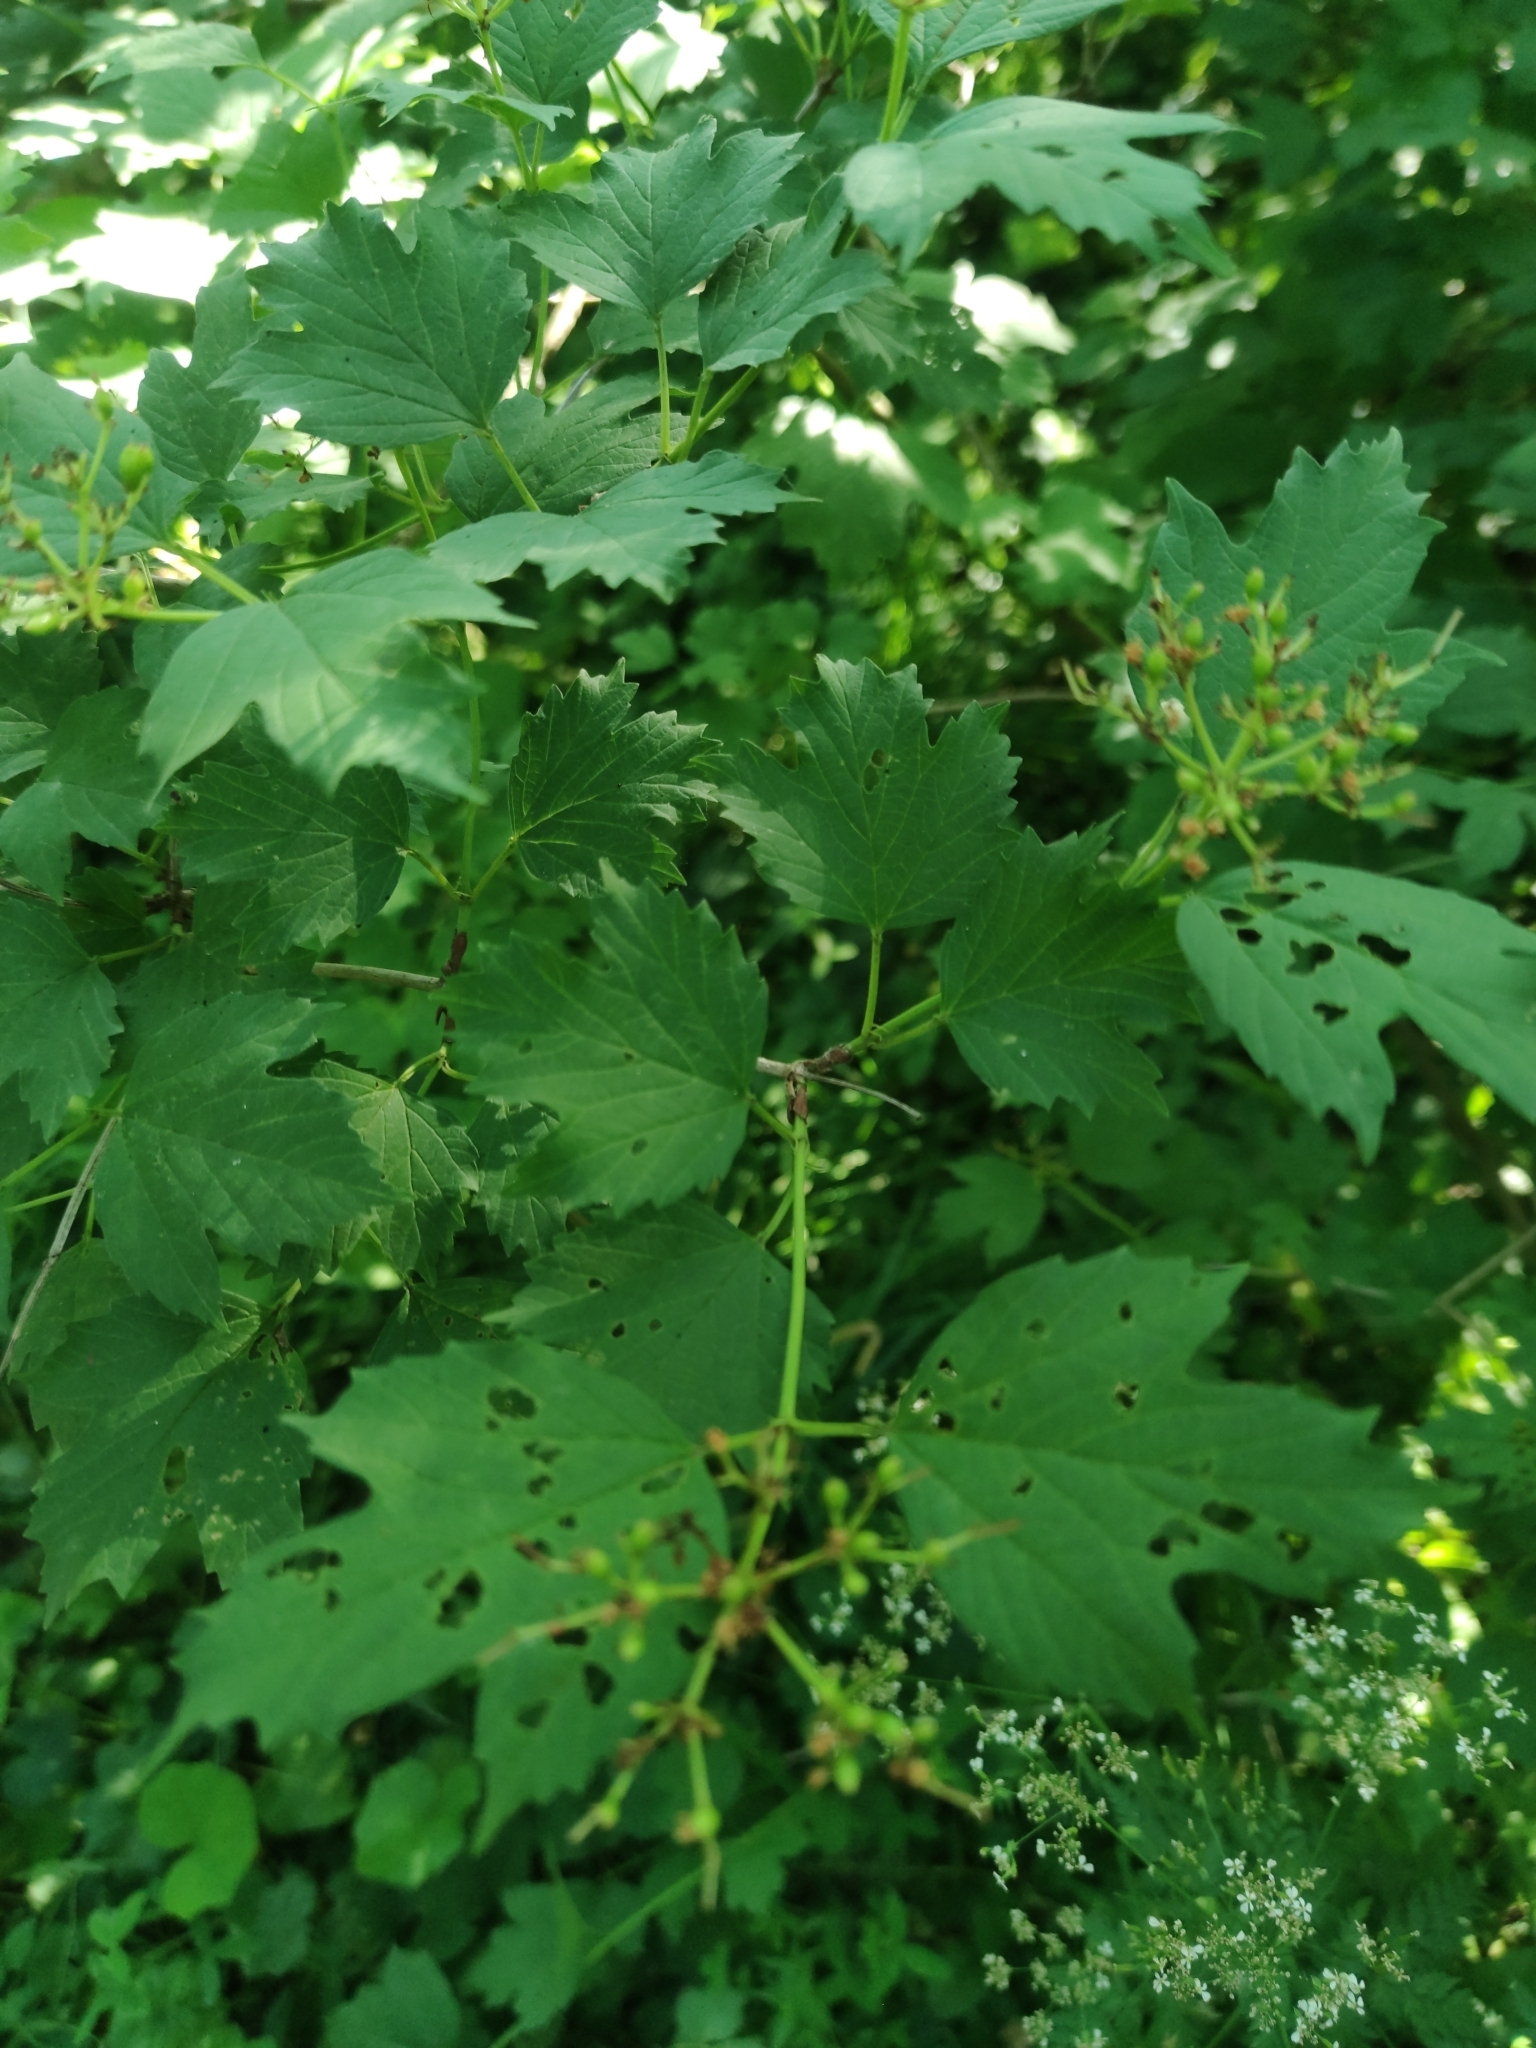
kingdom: Plantae
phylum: Tracheophyta
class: Magnoliopsida
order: Dipsacales
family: Viburnaceae
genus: Viburnum
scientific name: Viburnum opulus
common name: Guelder-rose
